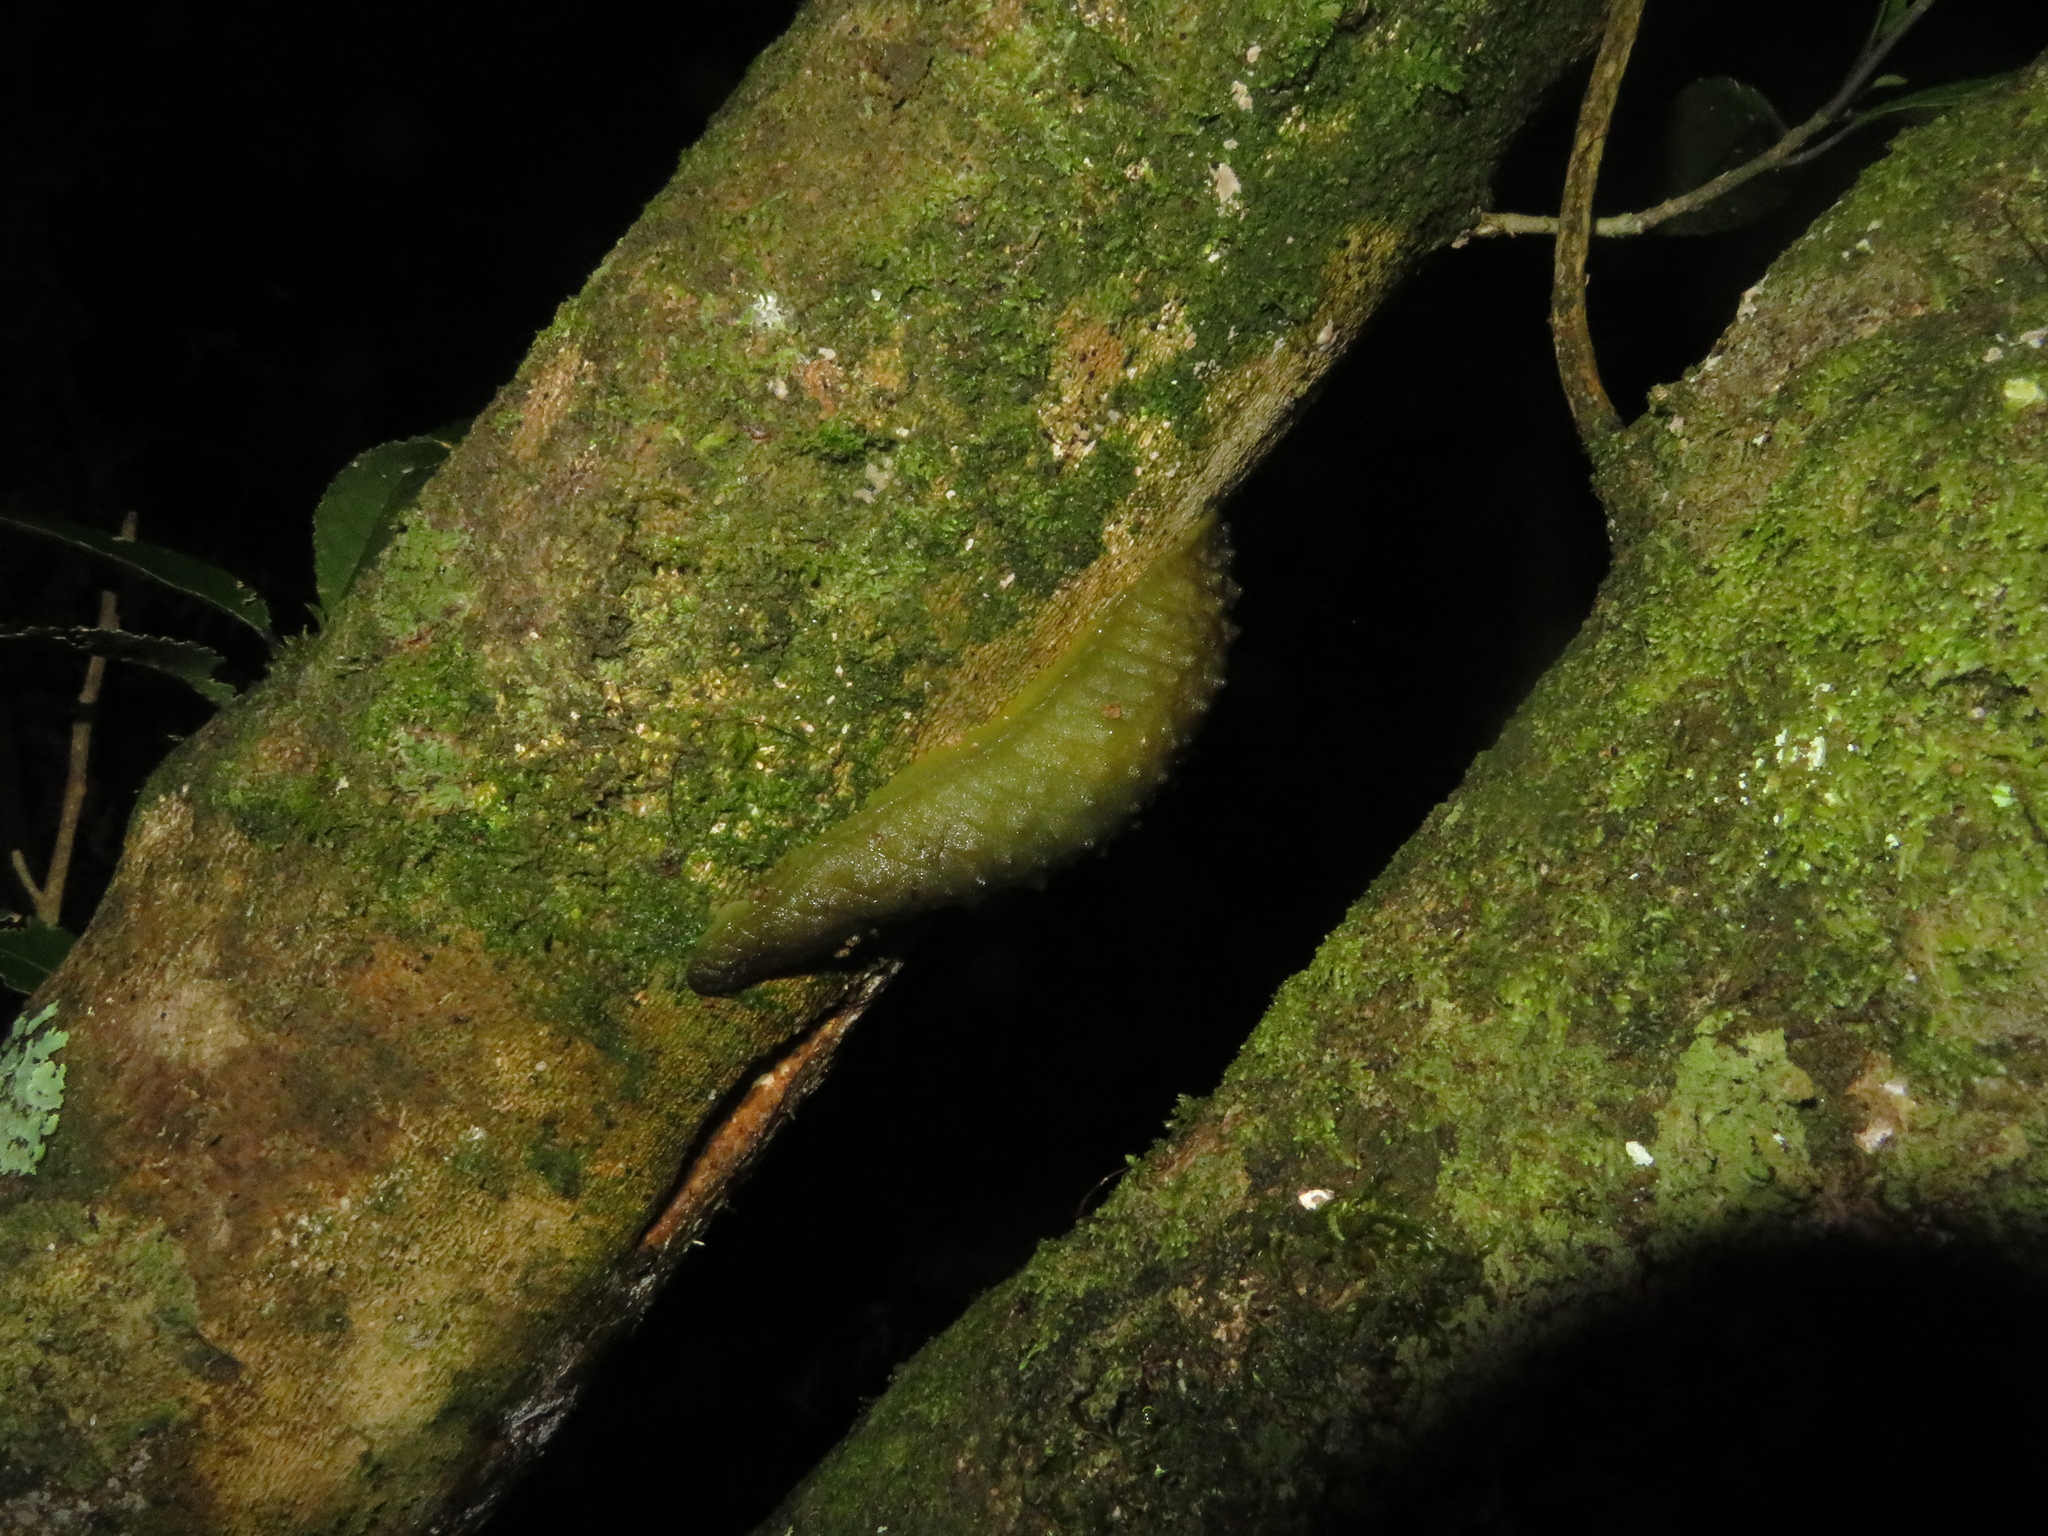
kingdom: Animalia
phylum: Mollusca
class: Gastropoda
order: Stylommatophora
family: Athoracophoridae
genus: Athoracophorus
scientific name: Athoracophorus papillatus
